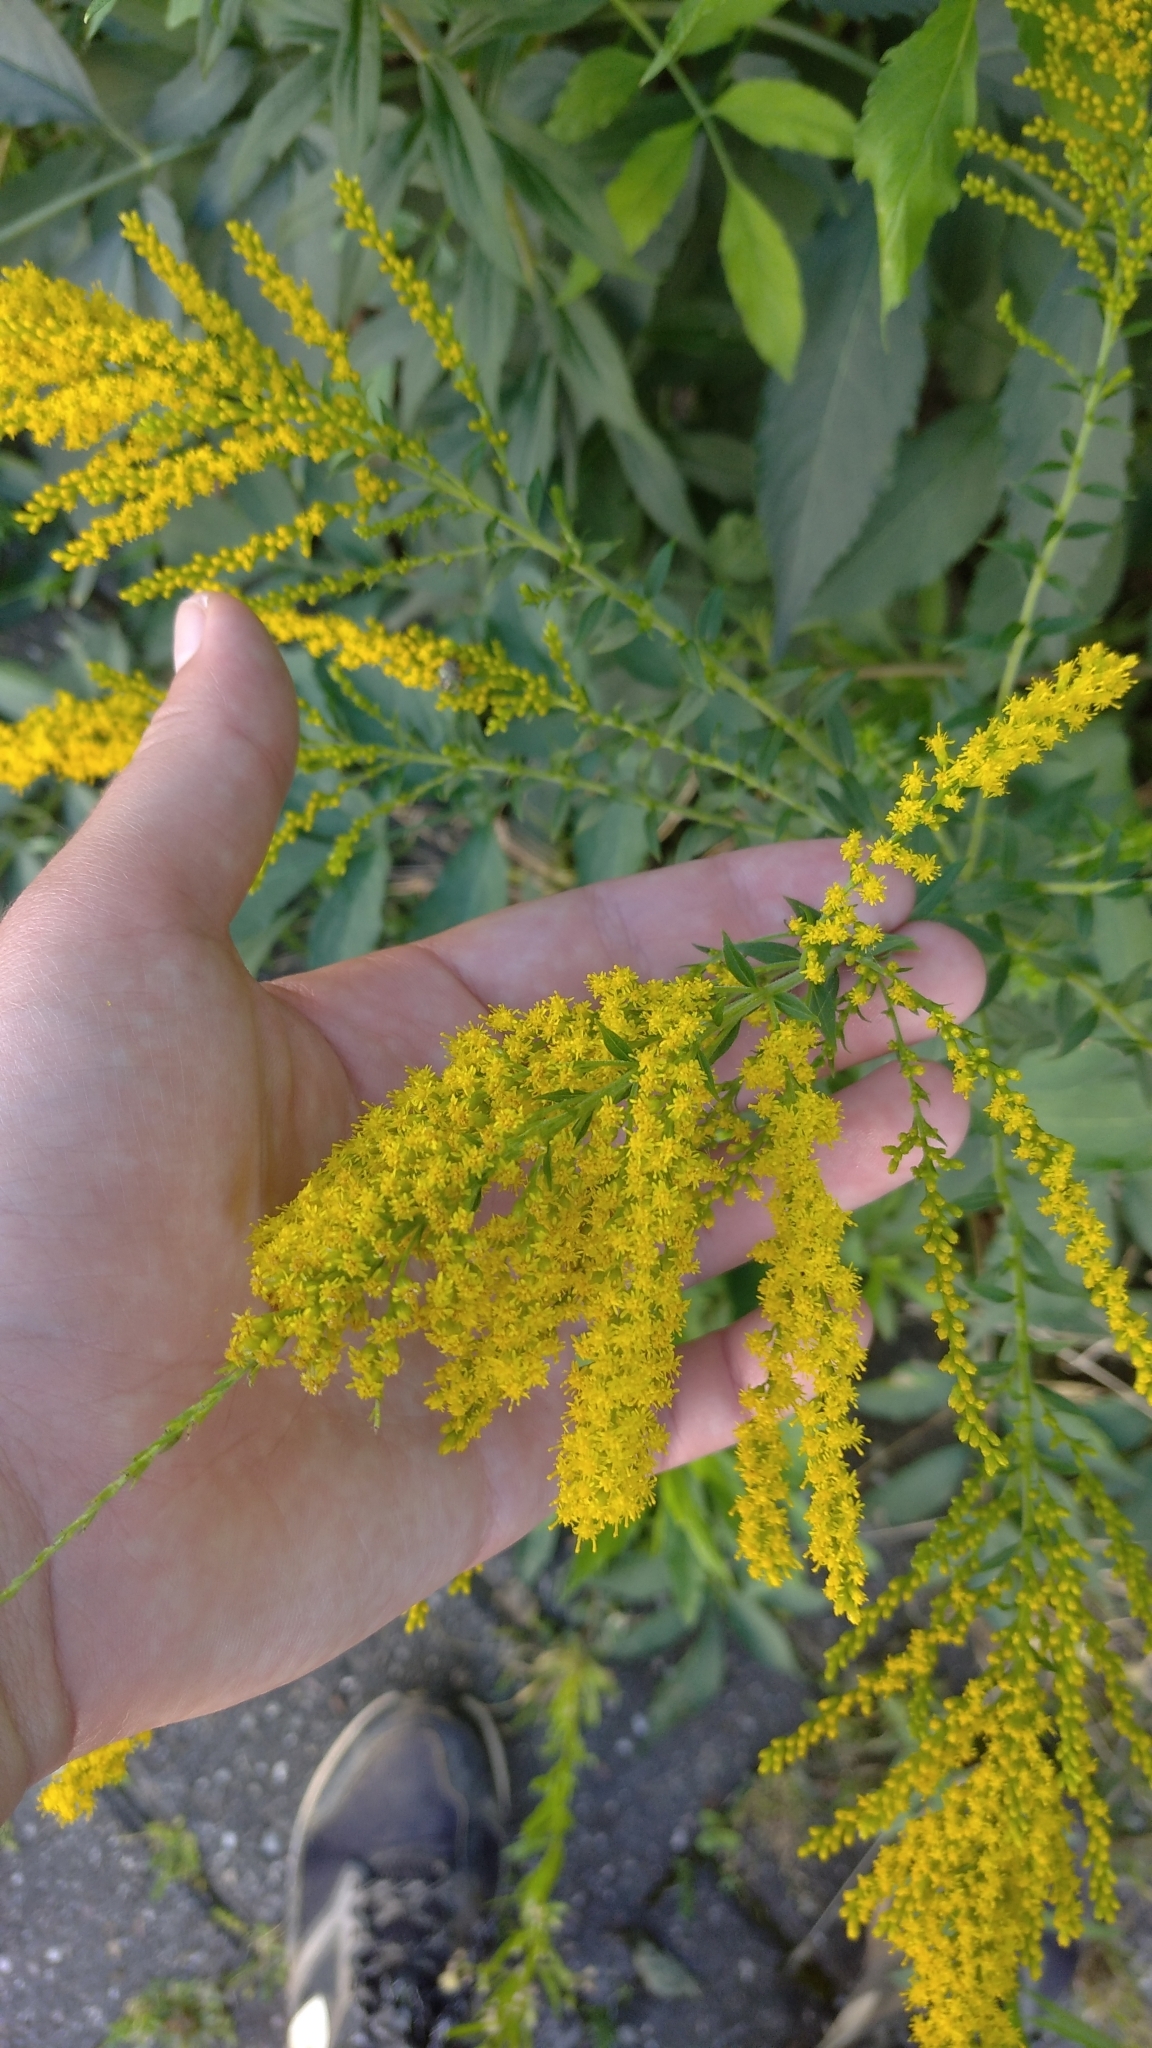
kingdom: Plantae
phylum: Tracheophyta
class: Magnoliopsida
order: Asterales
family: Asteraceae
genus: Solidago
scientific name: Solidago canadensis
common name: Canada goldenrod
